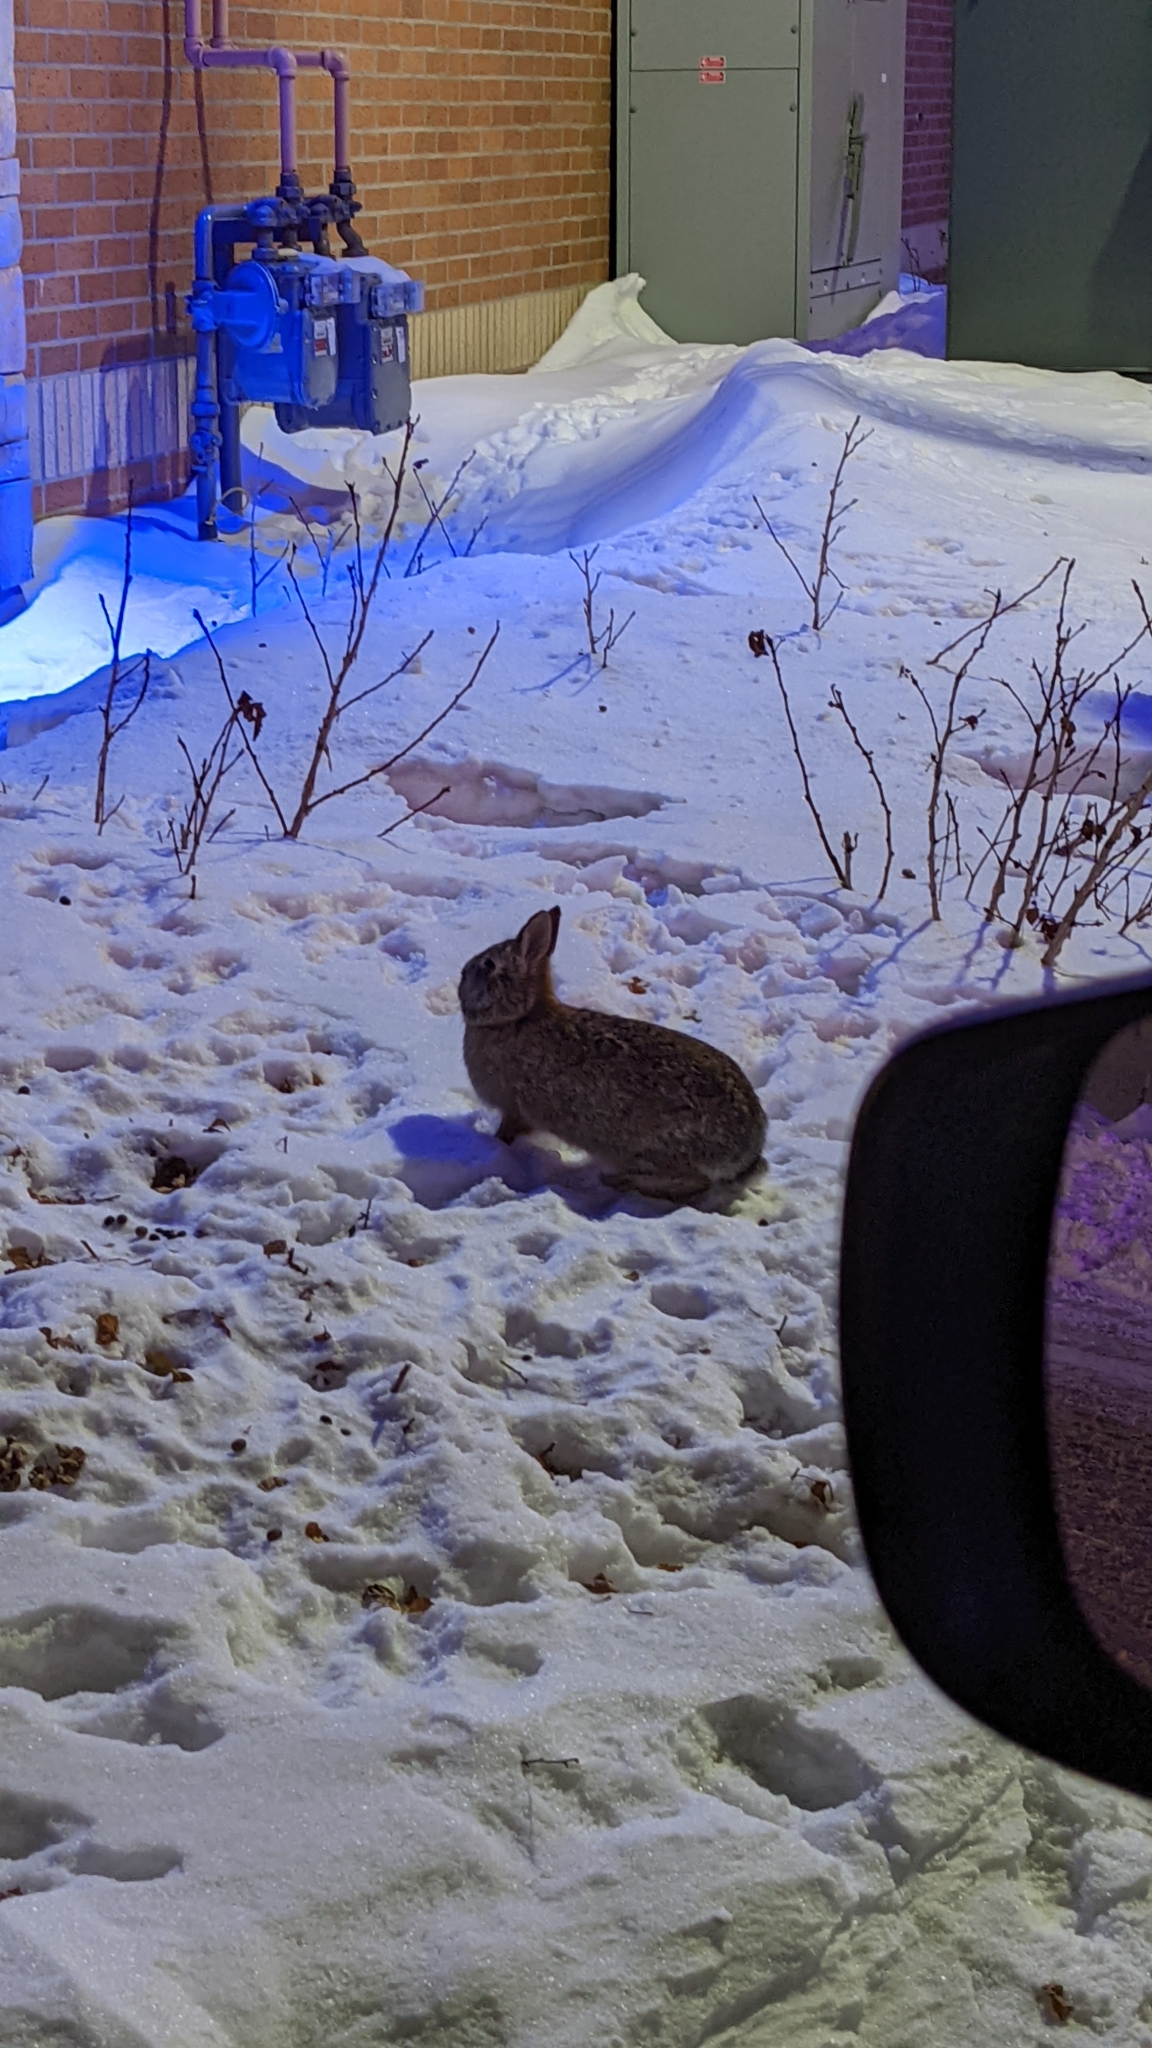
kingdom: Animalia
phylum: Chordata
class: Mammalia
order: Lagomorpha
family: Leporidae
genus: Sylvilagus
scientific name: Sylvilagus floridanus
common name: Eastern cottontail
